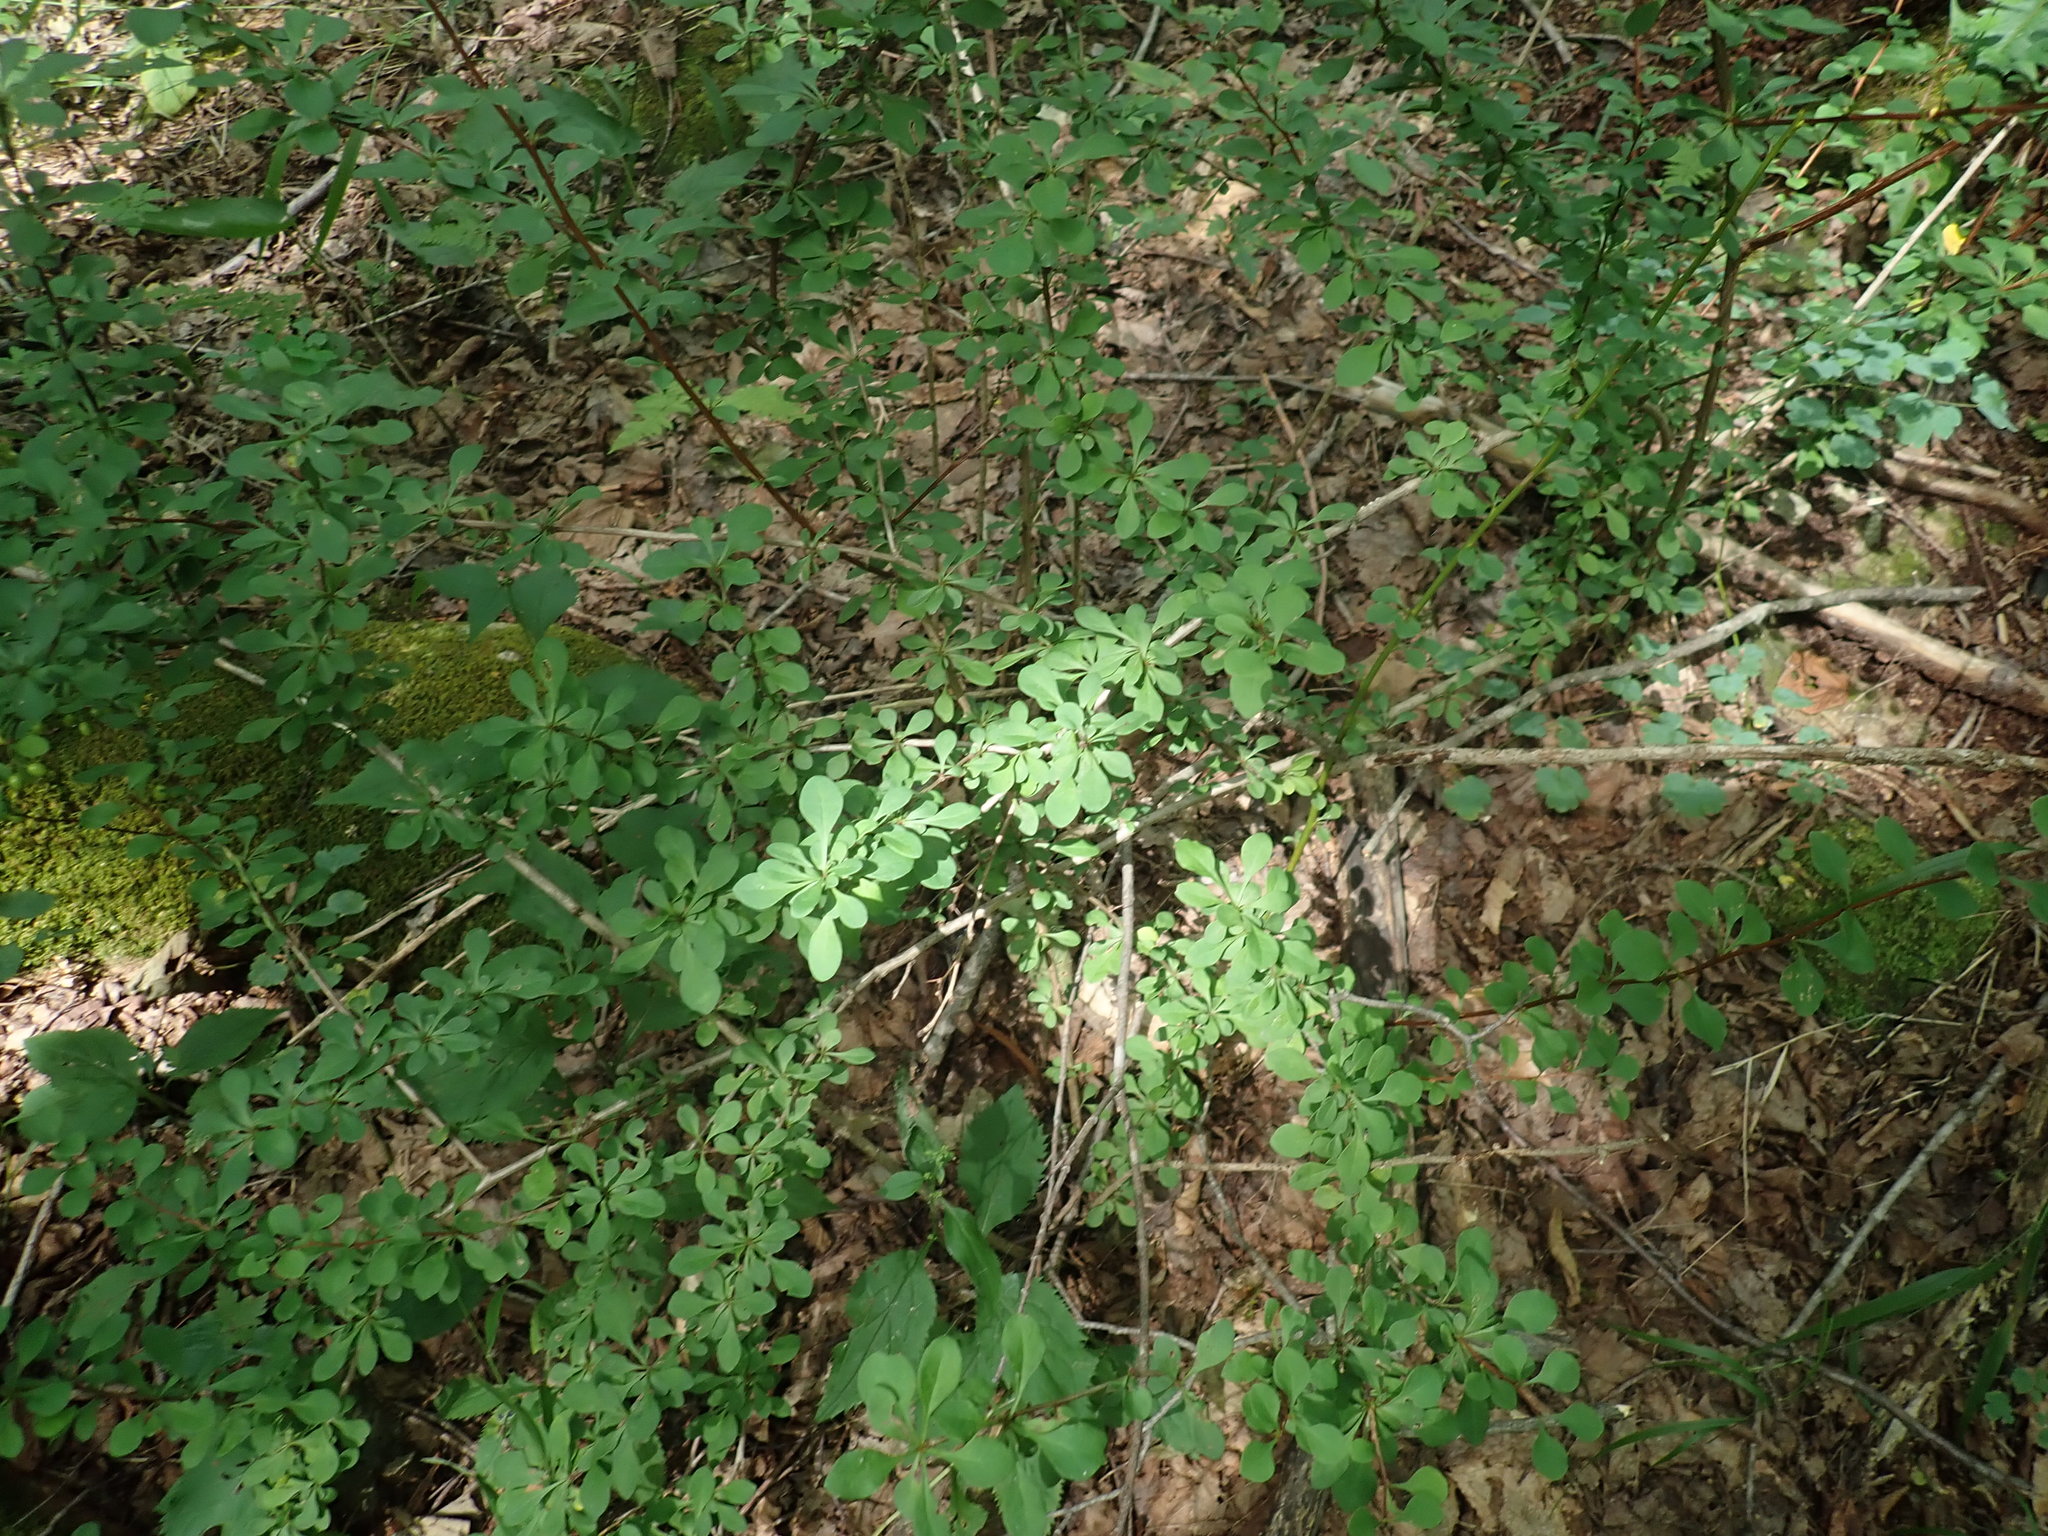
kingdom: Plantae
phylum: Tracheophyta
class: Magnoliopsida
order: Ranunculales
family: Berberidaceae
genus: Berberis
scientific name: Berberis thunbergii
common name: Japanese barberry
